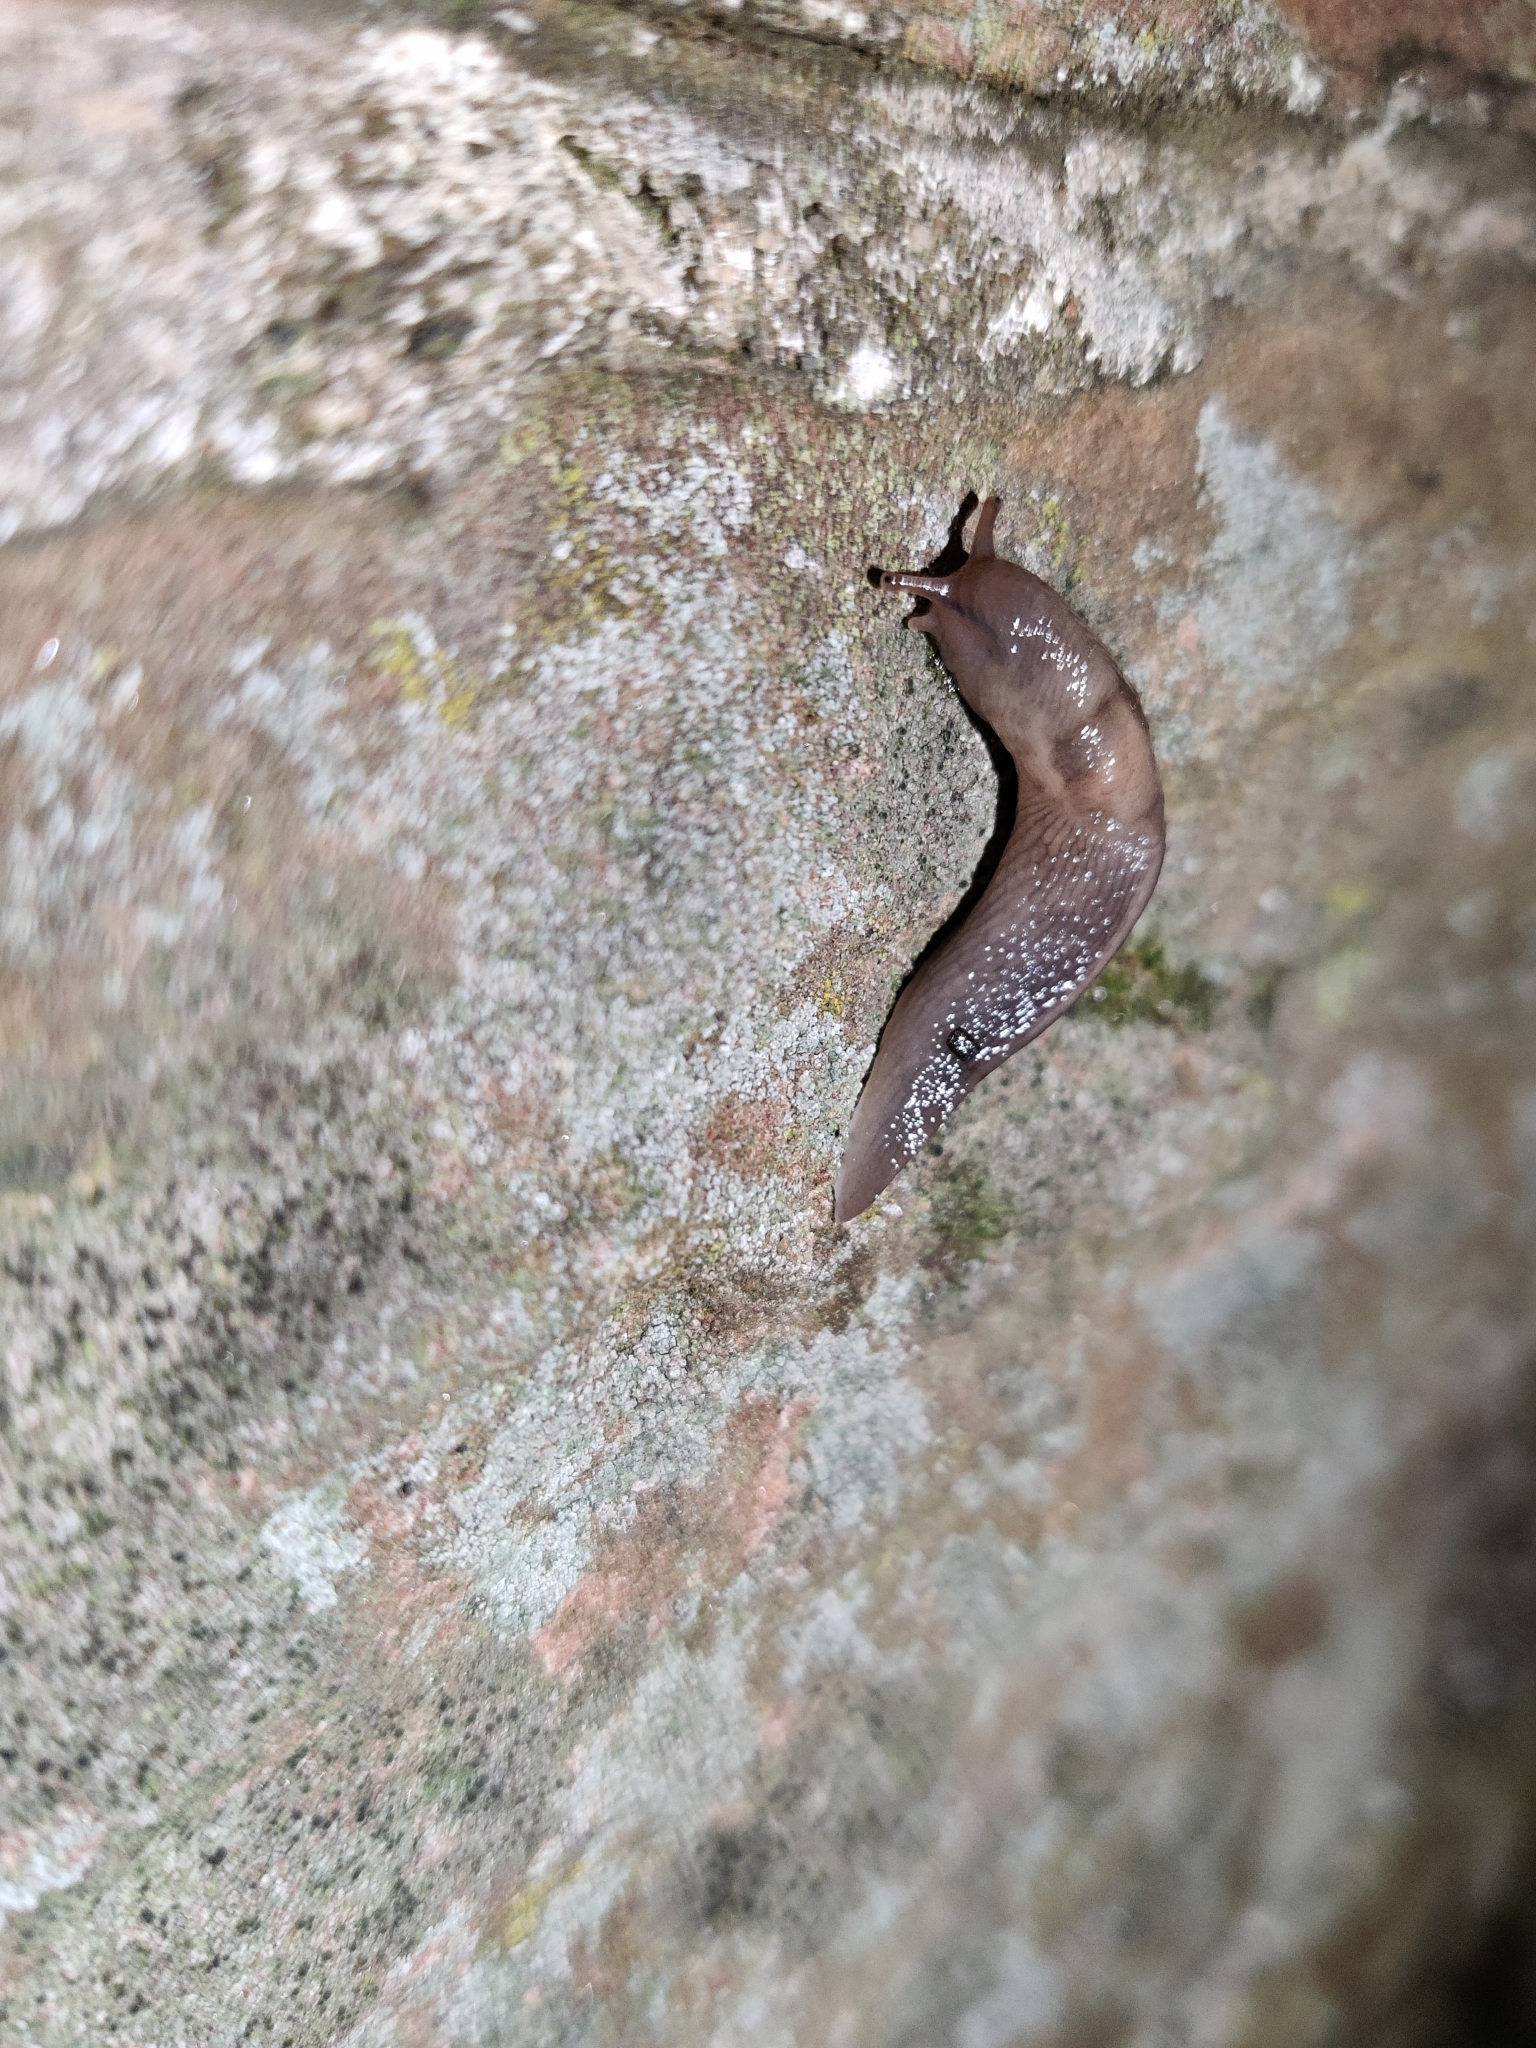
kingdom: Animalia
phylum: Mollusca
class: Gastropoda
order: Stylommatophora
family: Limacidae
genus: Lehmannia
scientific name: Lehmannia marginata
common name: Tree slug
